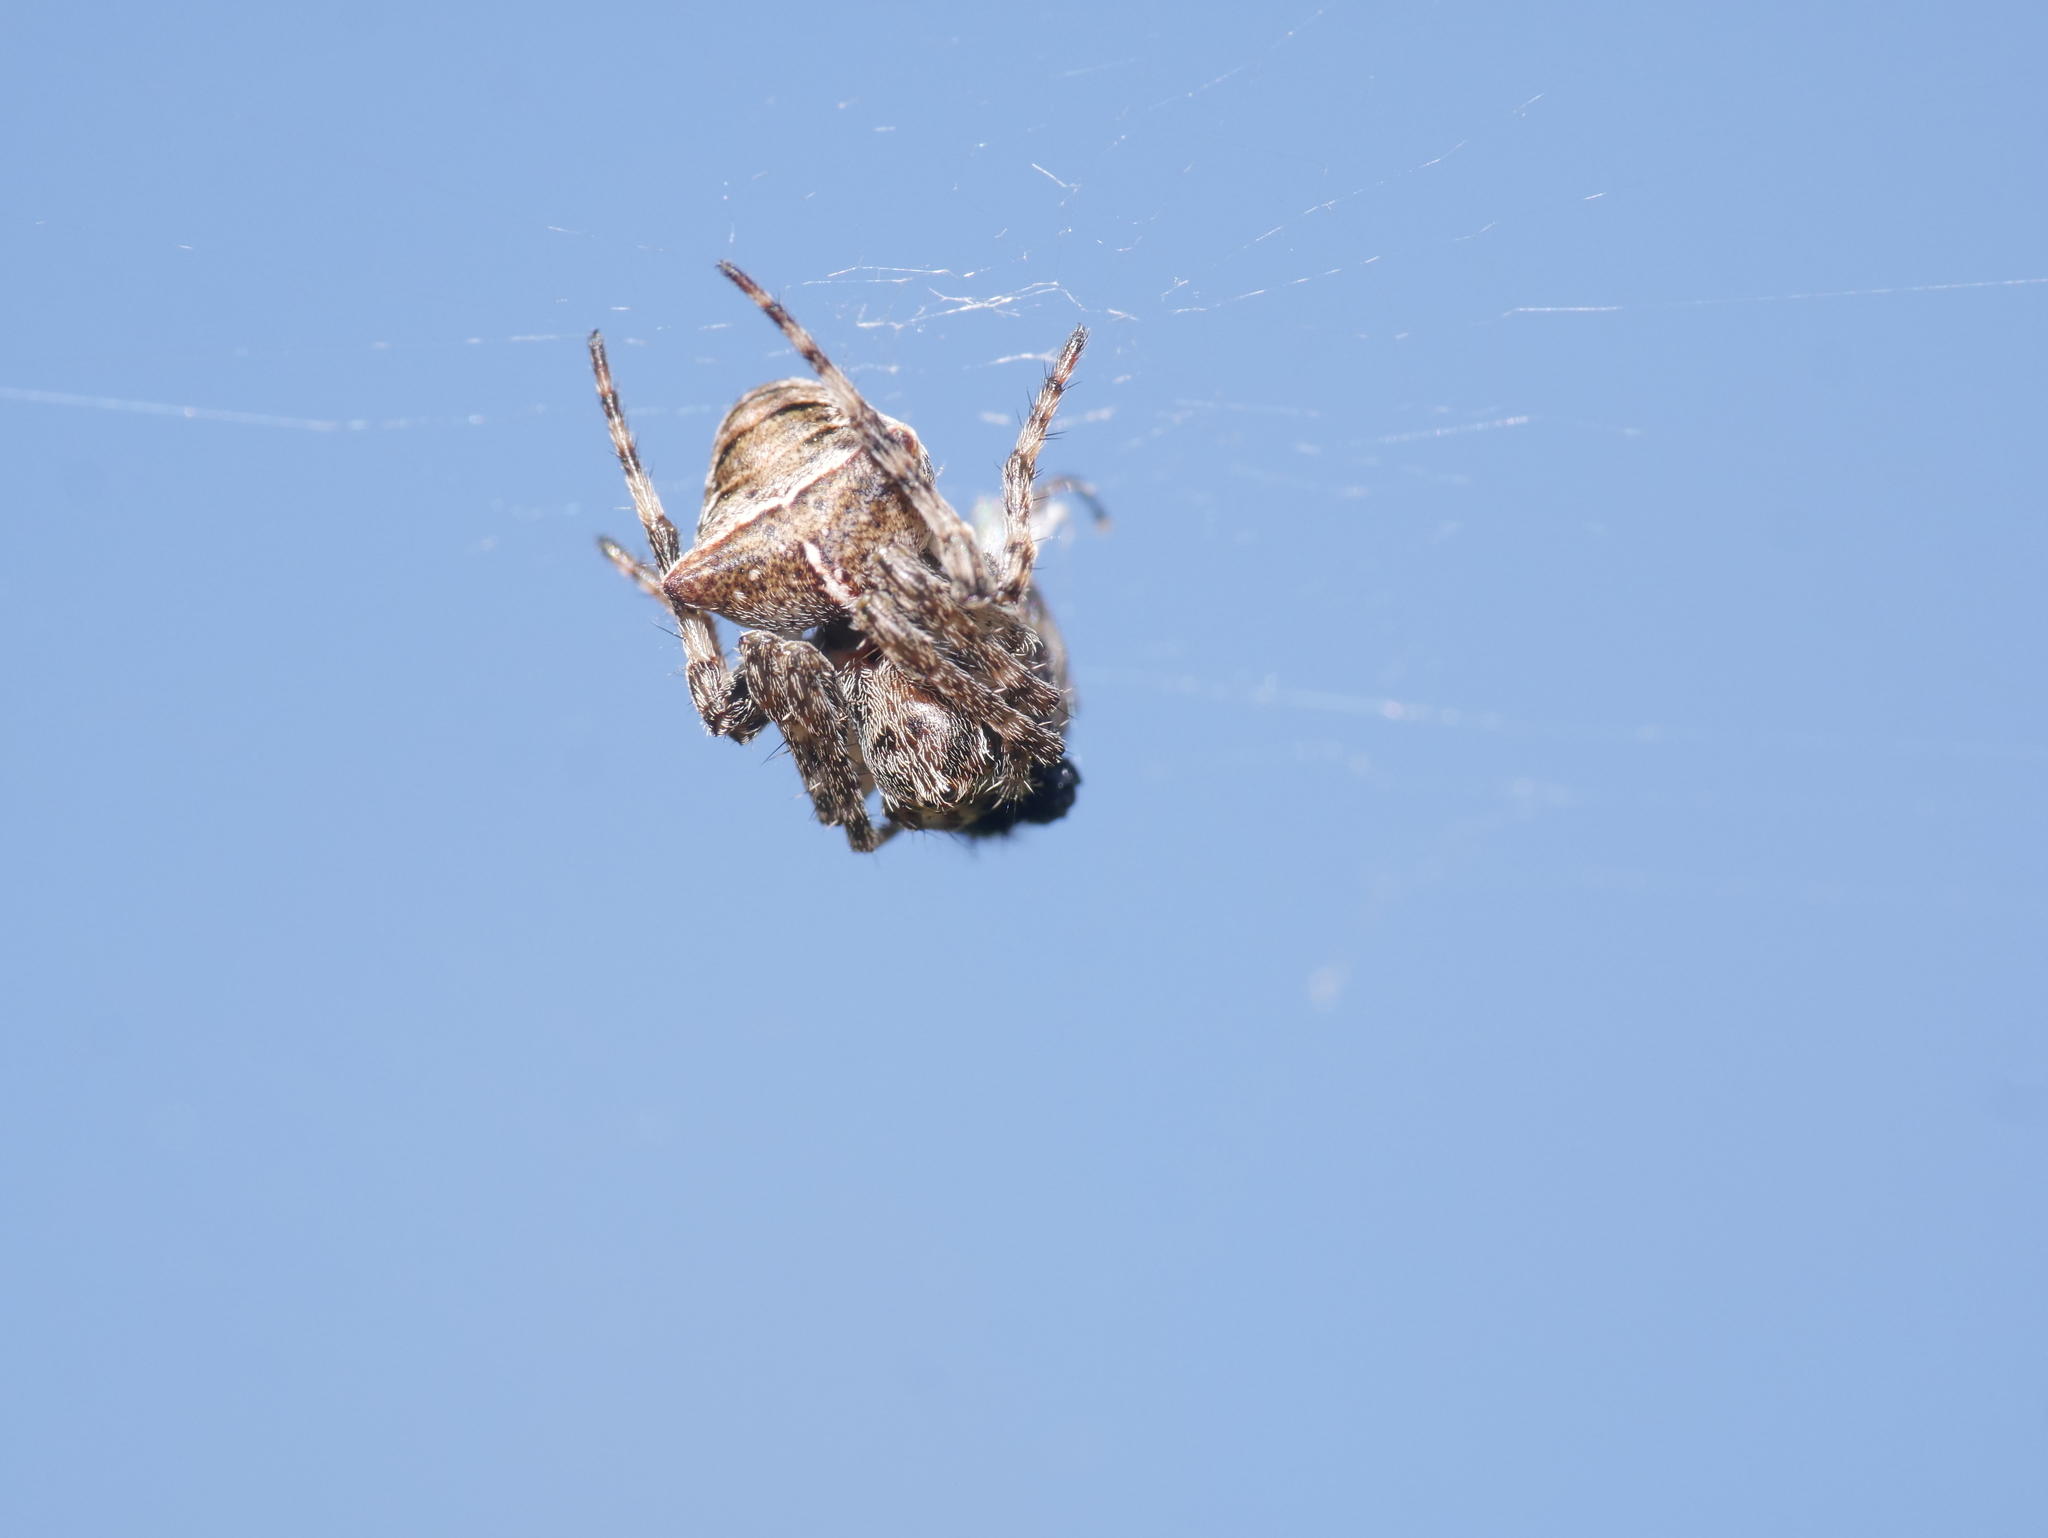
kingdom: Animalia
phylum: Arthropoda
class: Arachnida
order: Araneae
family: Araneidae
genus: Gibbaranea
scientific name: Gibbaranea bituberculata
